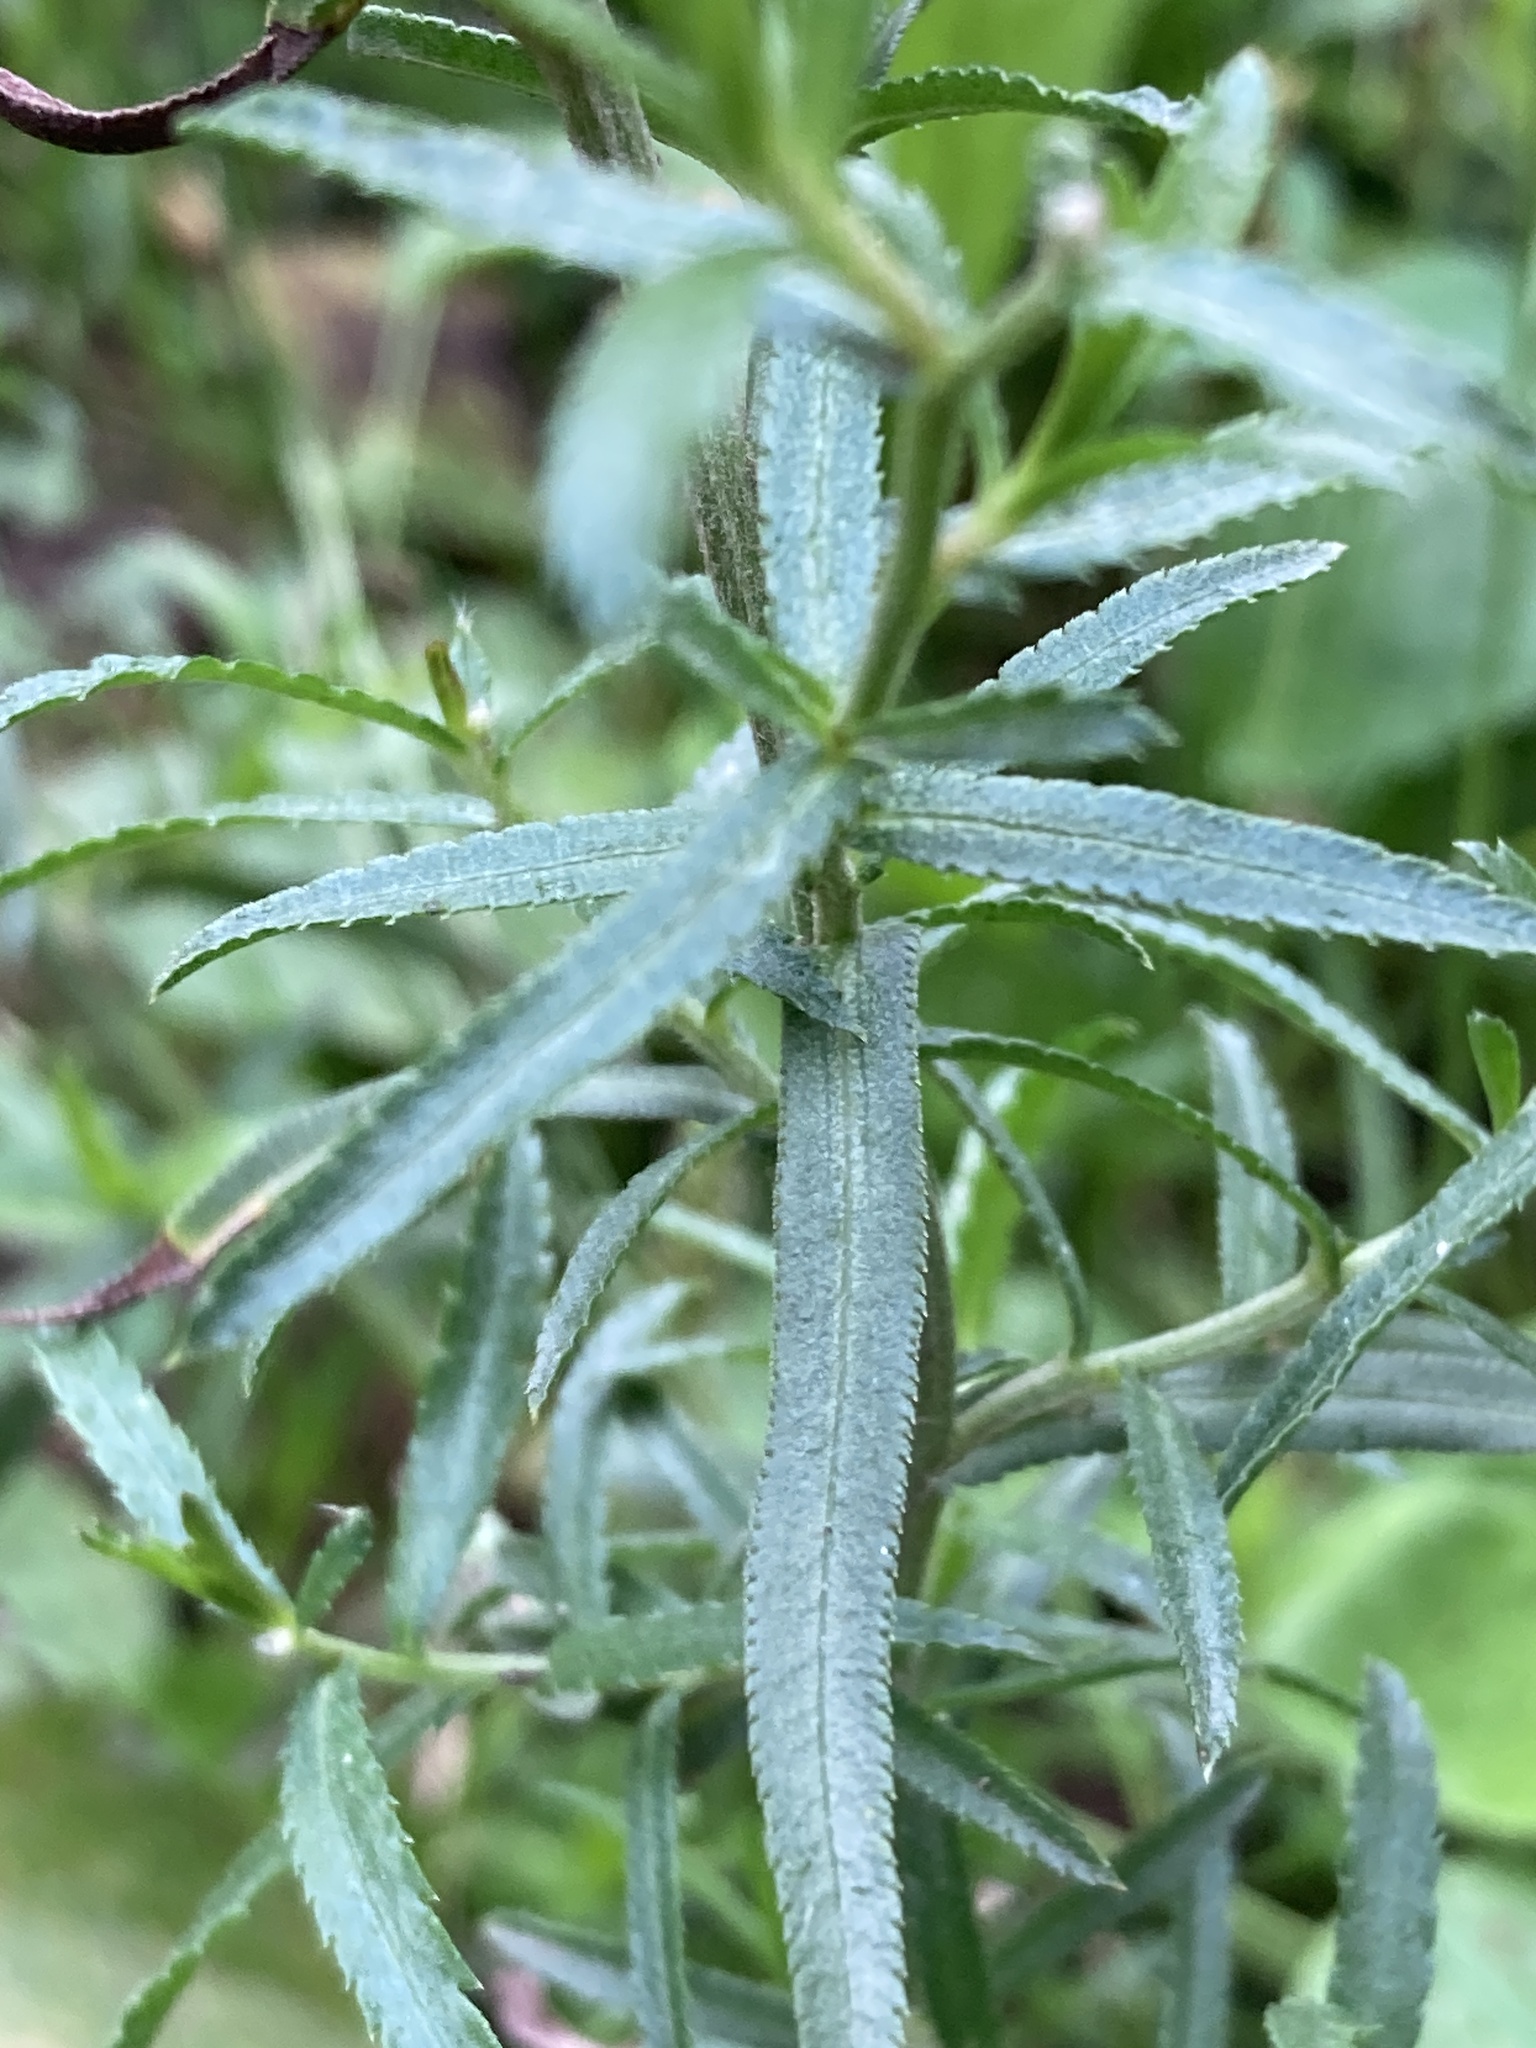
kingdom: Plantae
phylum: Tracheophyta
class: Magnoliopsida
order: Asterales
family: Asteraceae
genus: Achillea
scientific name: Achillea ptarmica
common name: Sneezeweed
